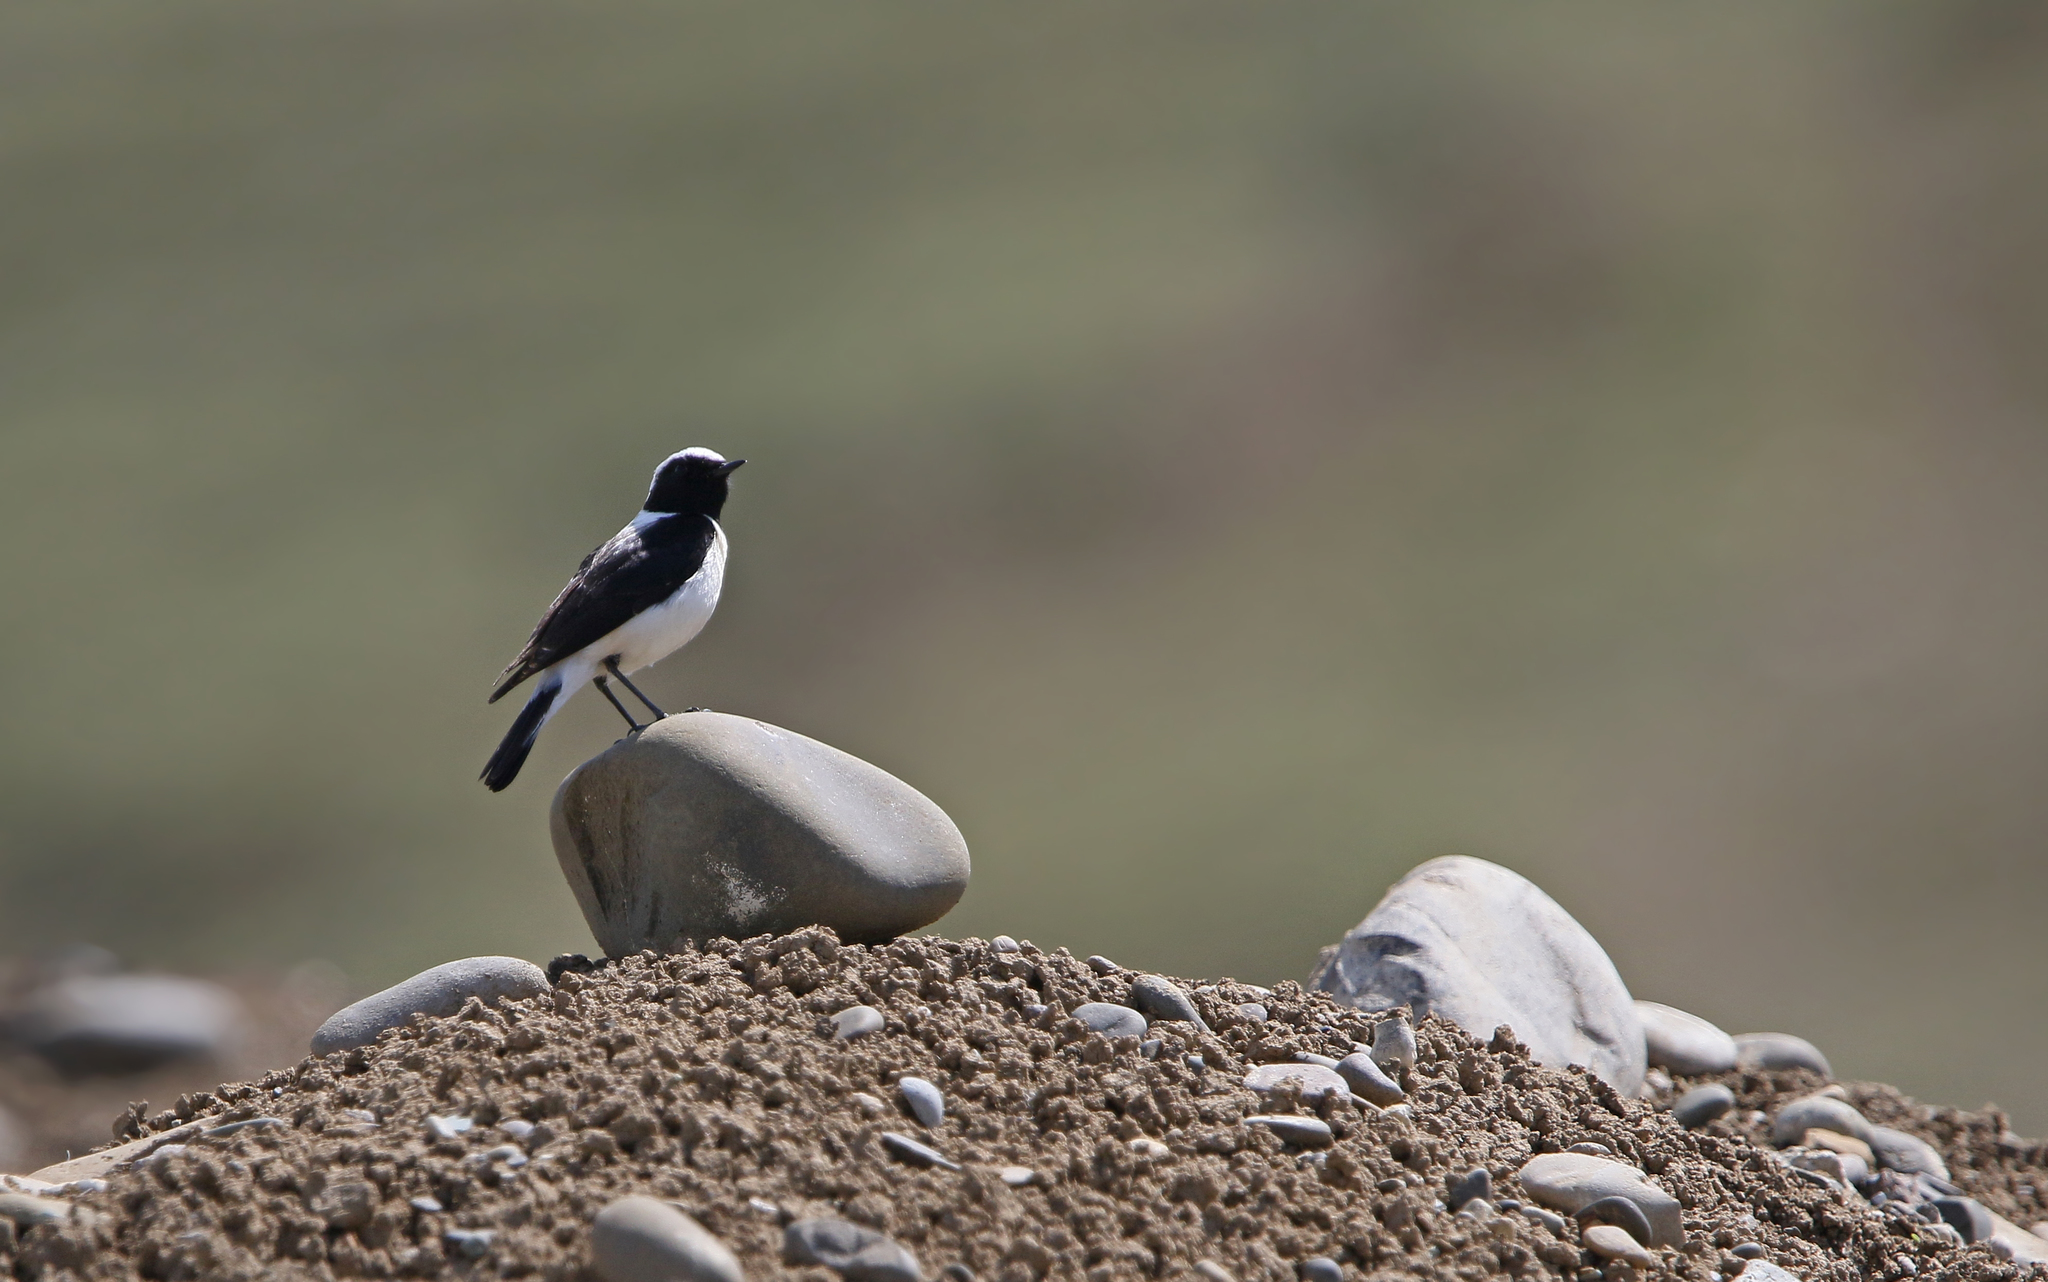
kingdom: Animalia
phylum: Chordata
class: Aves
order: Passeriformes
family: Muscicapidae
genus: Oenanthe
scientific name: Oenanthe hispanica
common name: Black-eared wheatear
